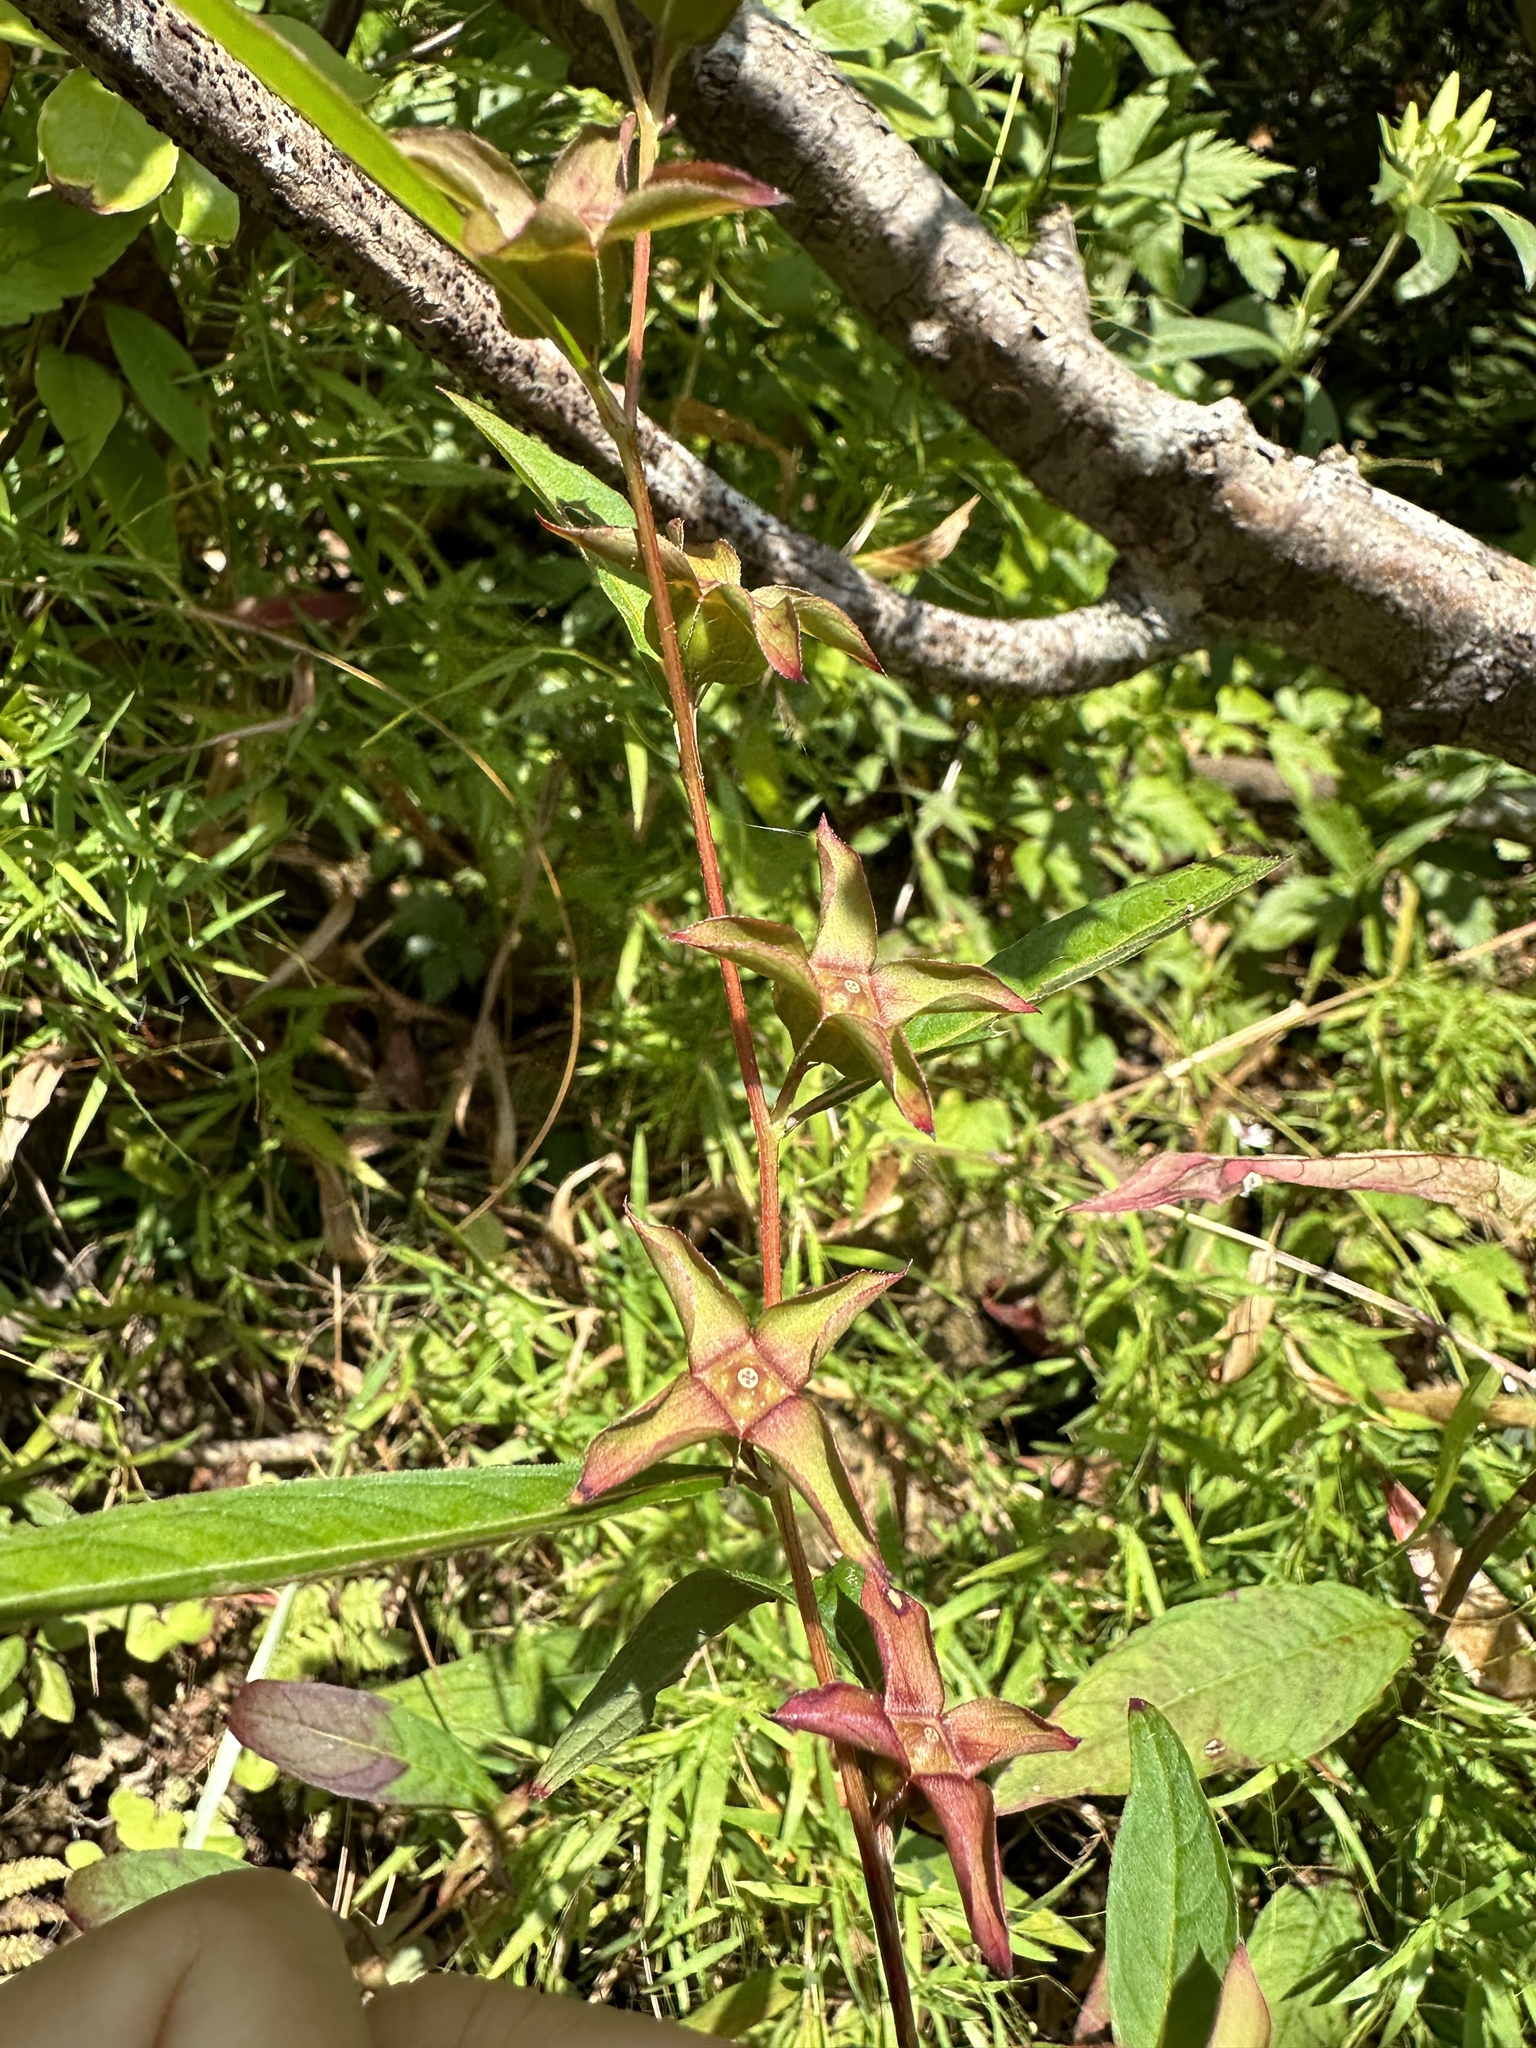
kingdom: Plantae
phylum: Tracheophyta
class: Magnoliopsida
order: Myrtales
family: Onagraceae
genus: Ludwigia
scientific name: Ludwigia alternifolia
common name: Rattlebox
